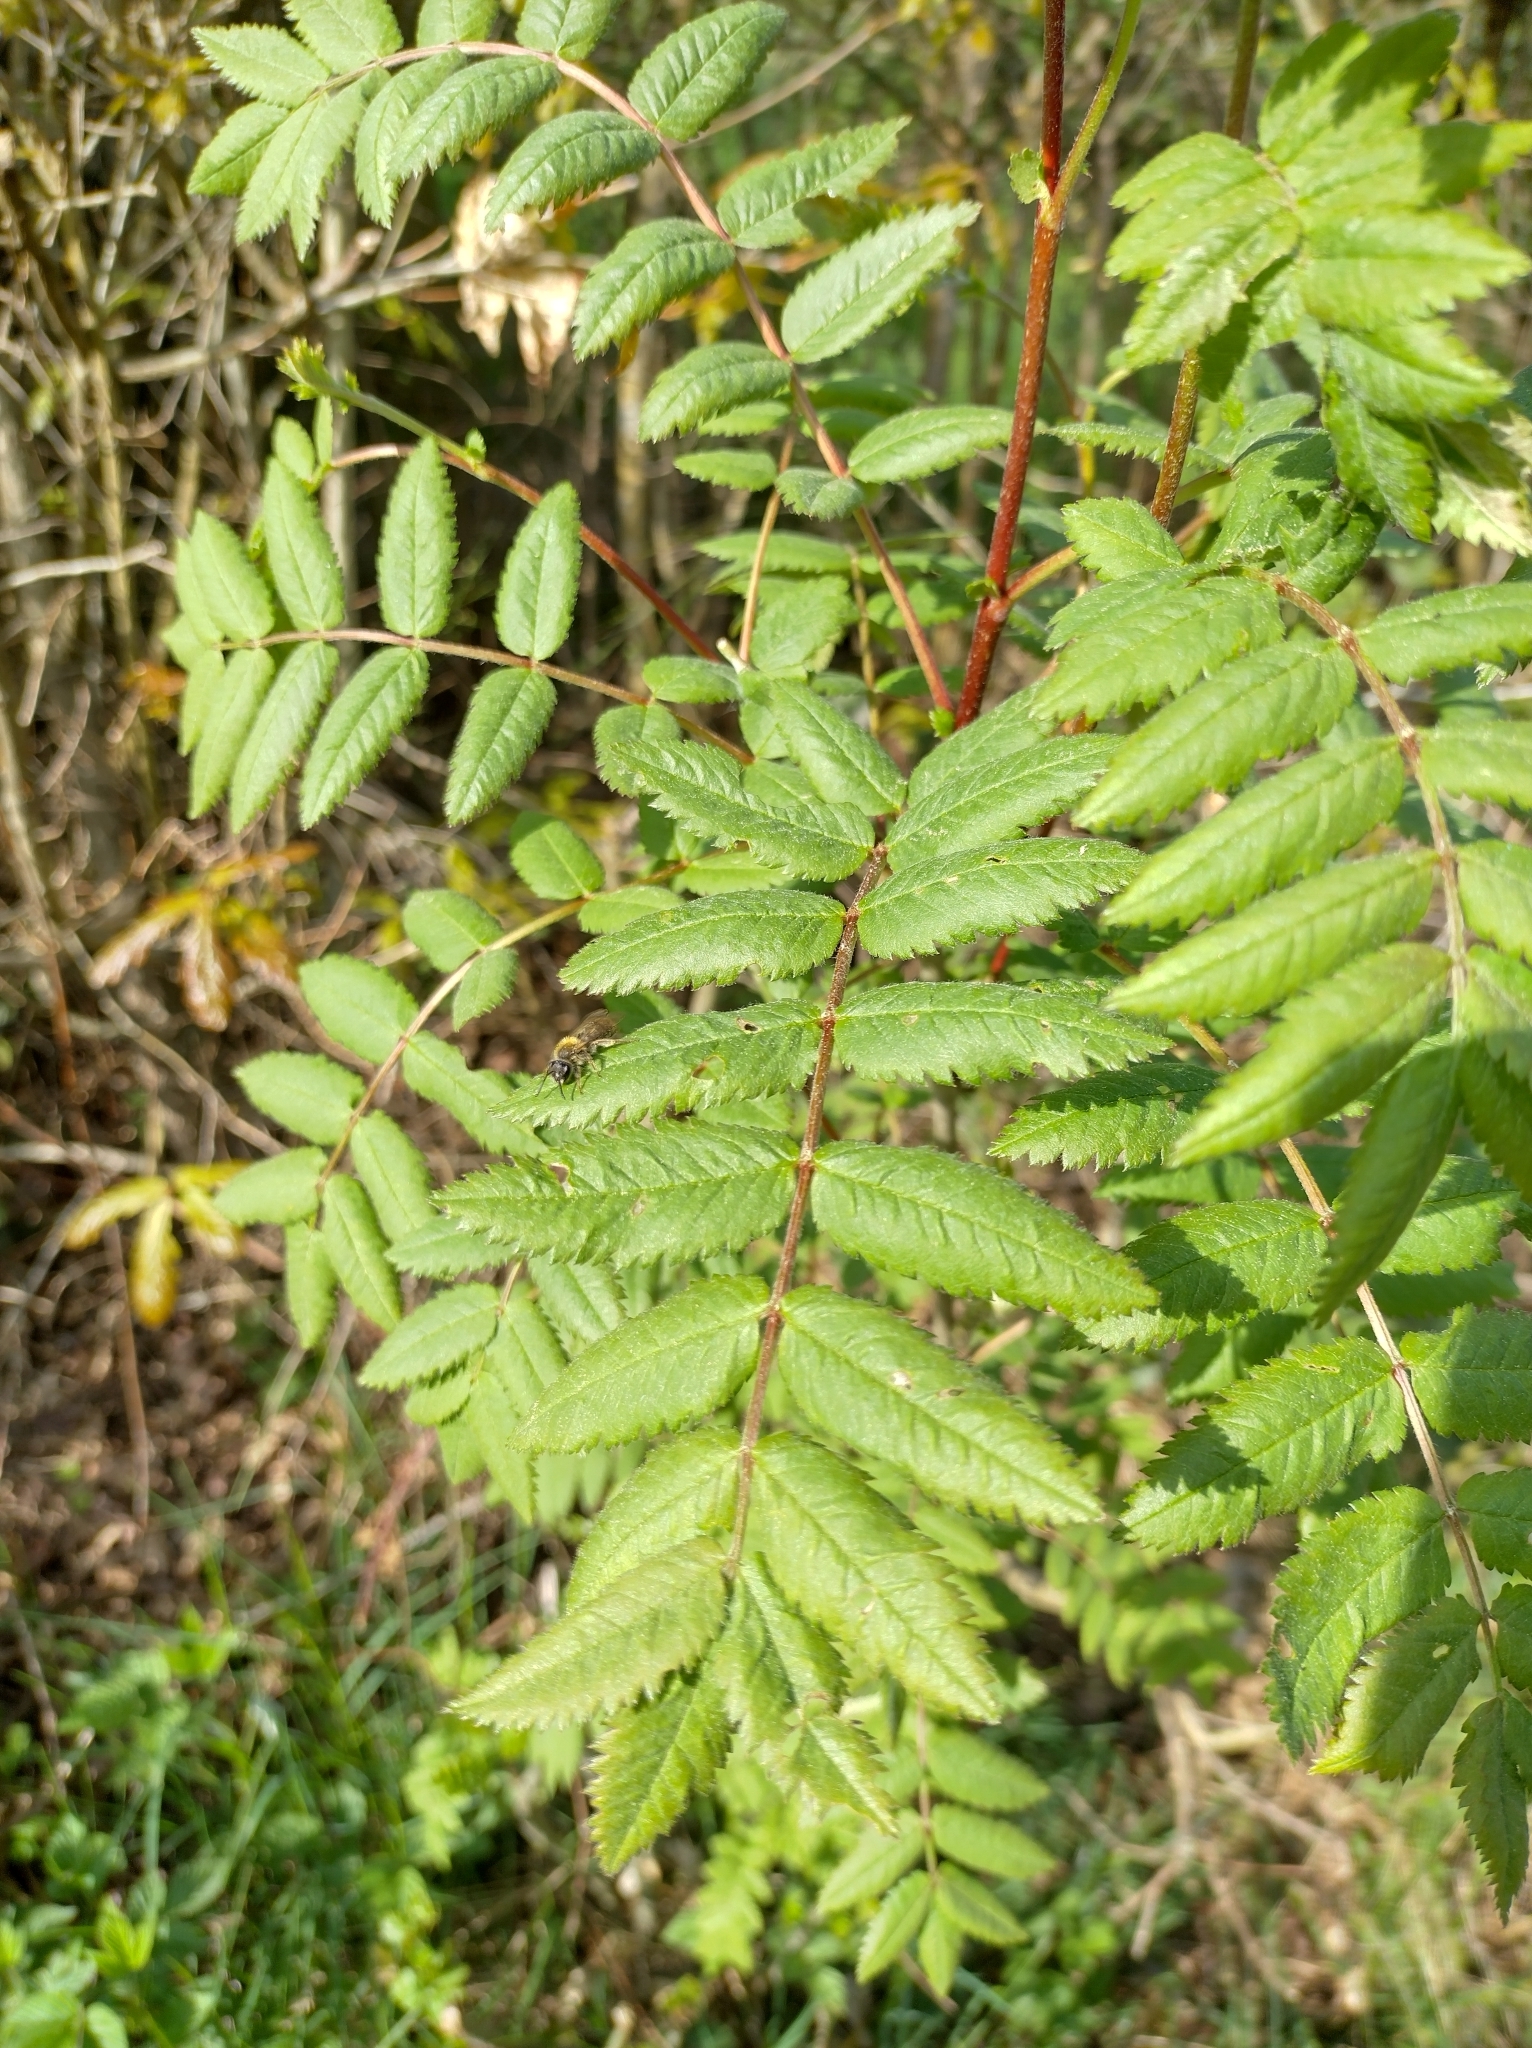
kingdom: Plantae
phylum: Tracheophyta
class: Magnoliopsida
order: Rosales
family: Rosaceae
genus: Sorbus
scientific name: Sorbus aucuparia
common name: Rowan
